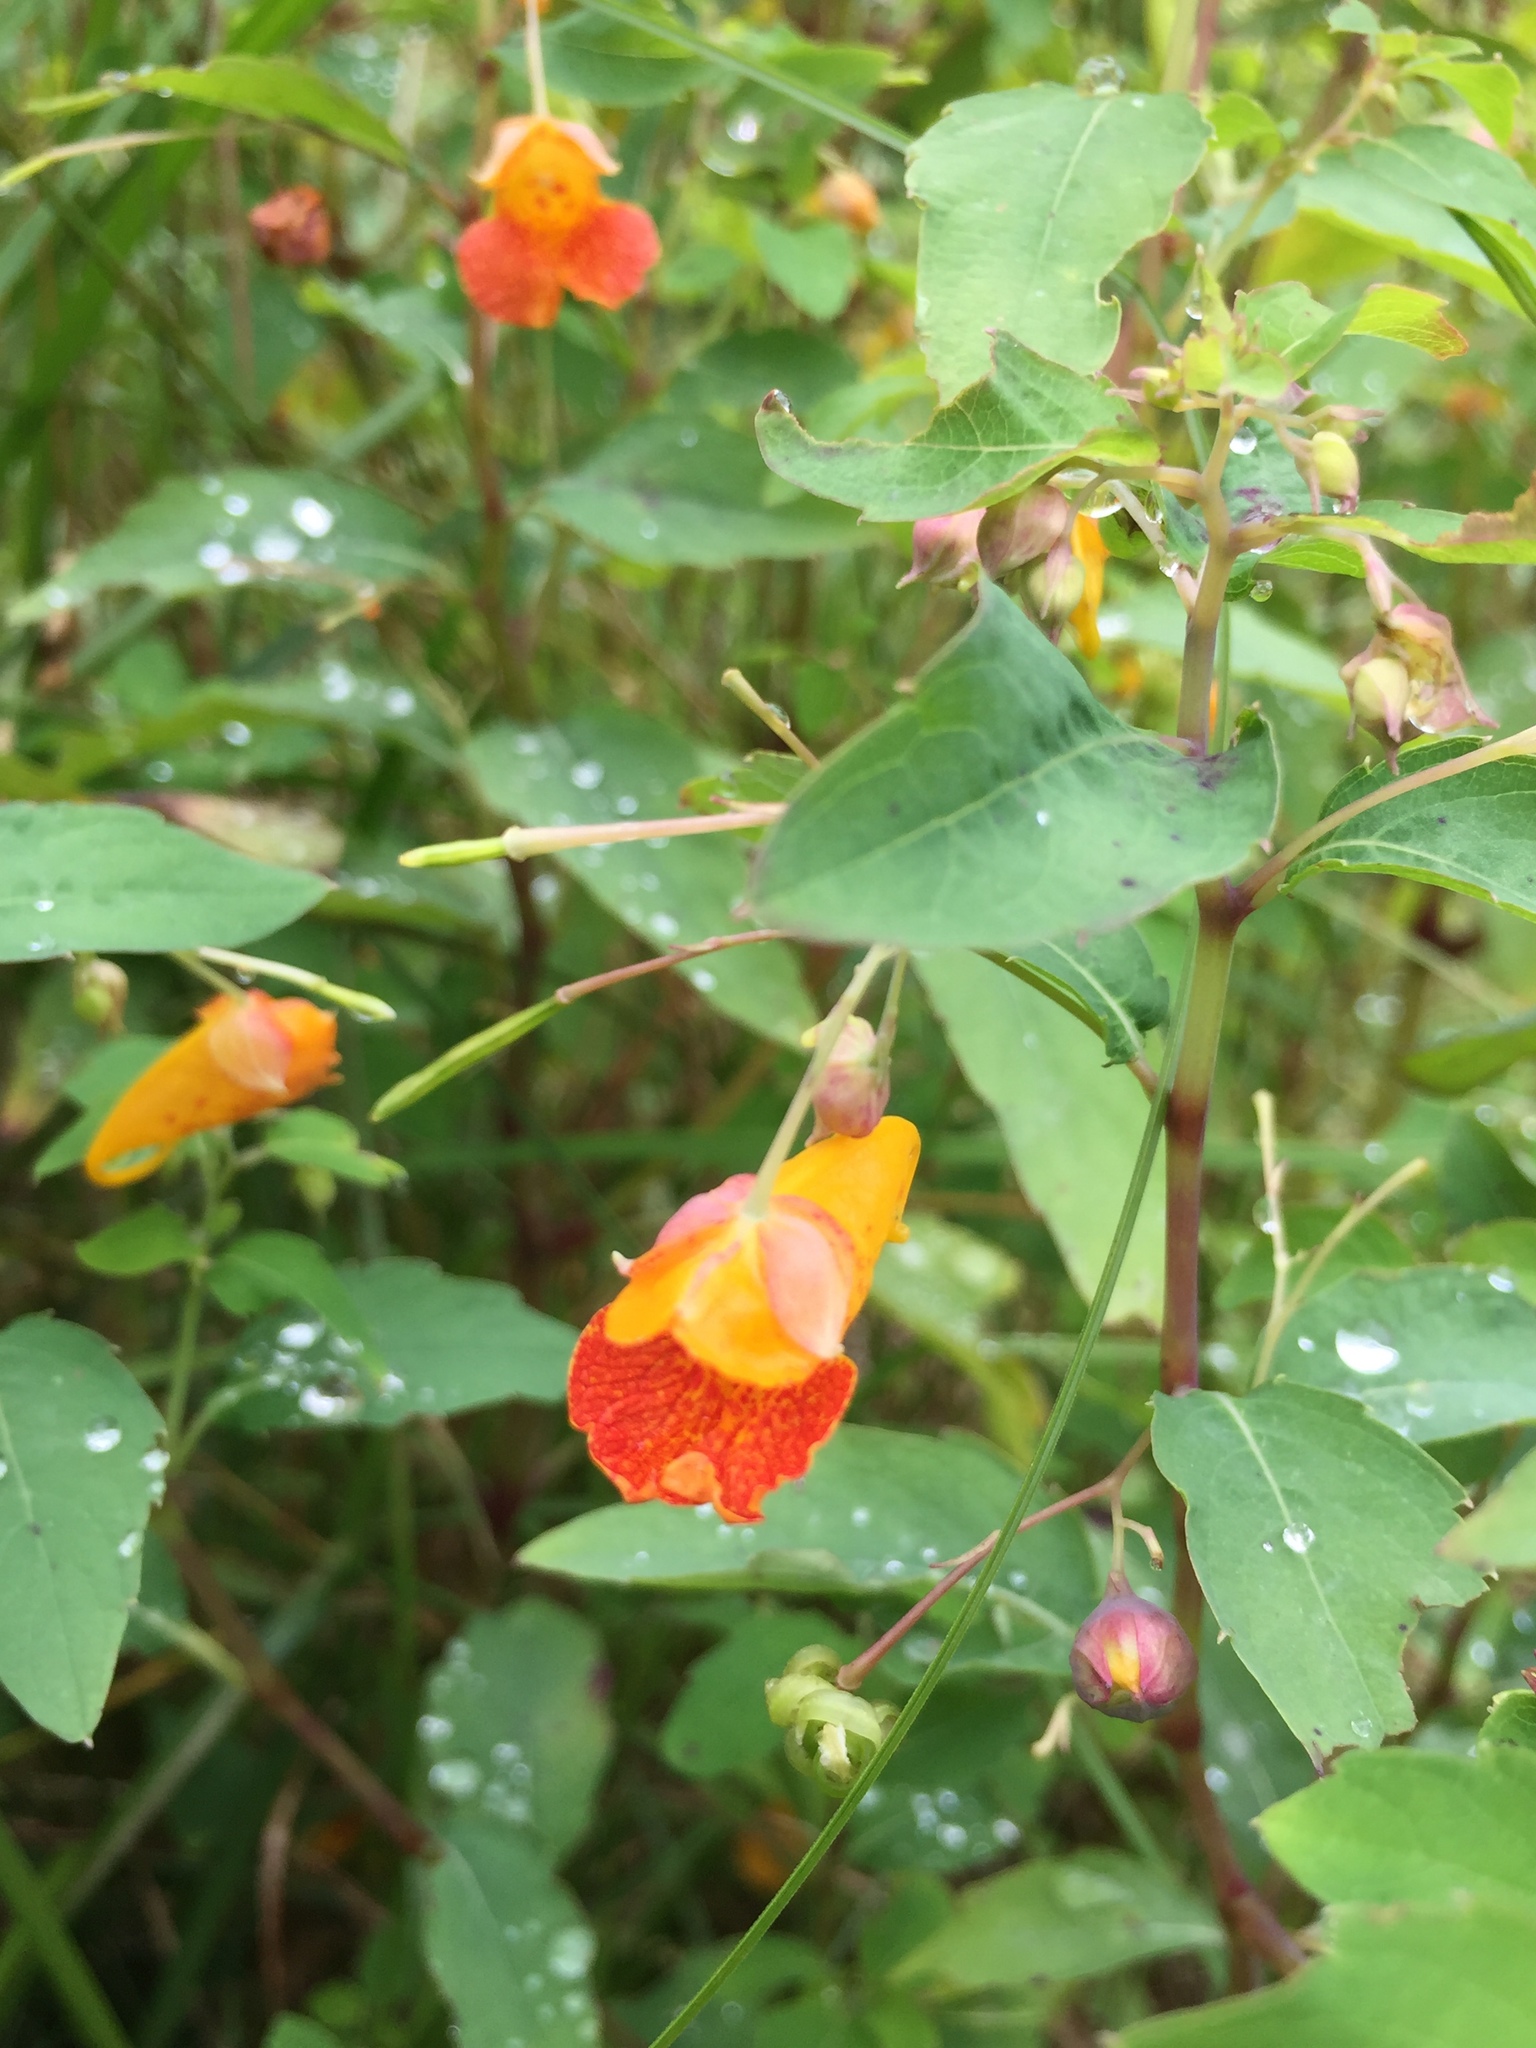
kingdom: Plantae
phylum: Tracheophyta
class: Magnoliopsida
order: Ericales
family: Balsaminaceae
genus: Impatiens
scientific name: Impatiens capensis
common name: Orange balsam
